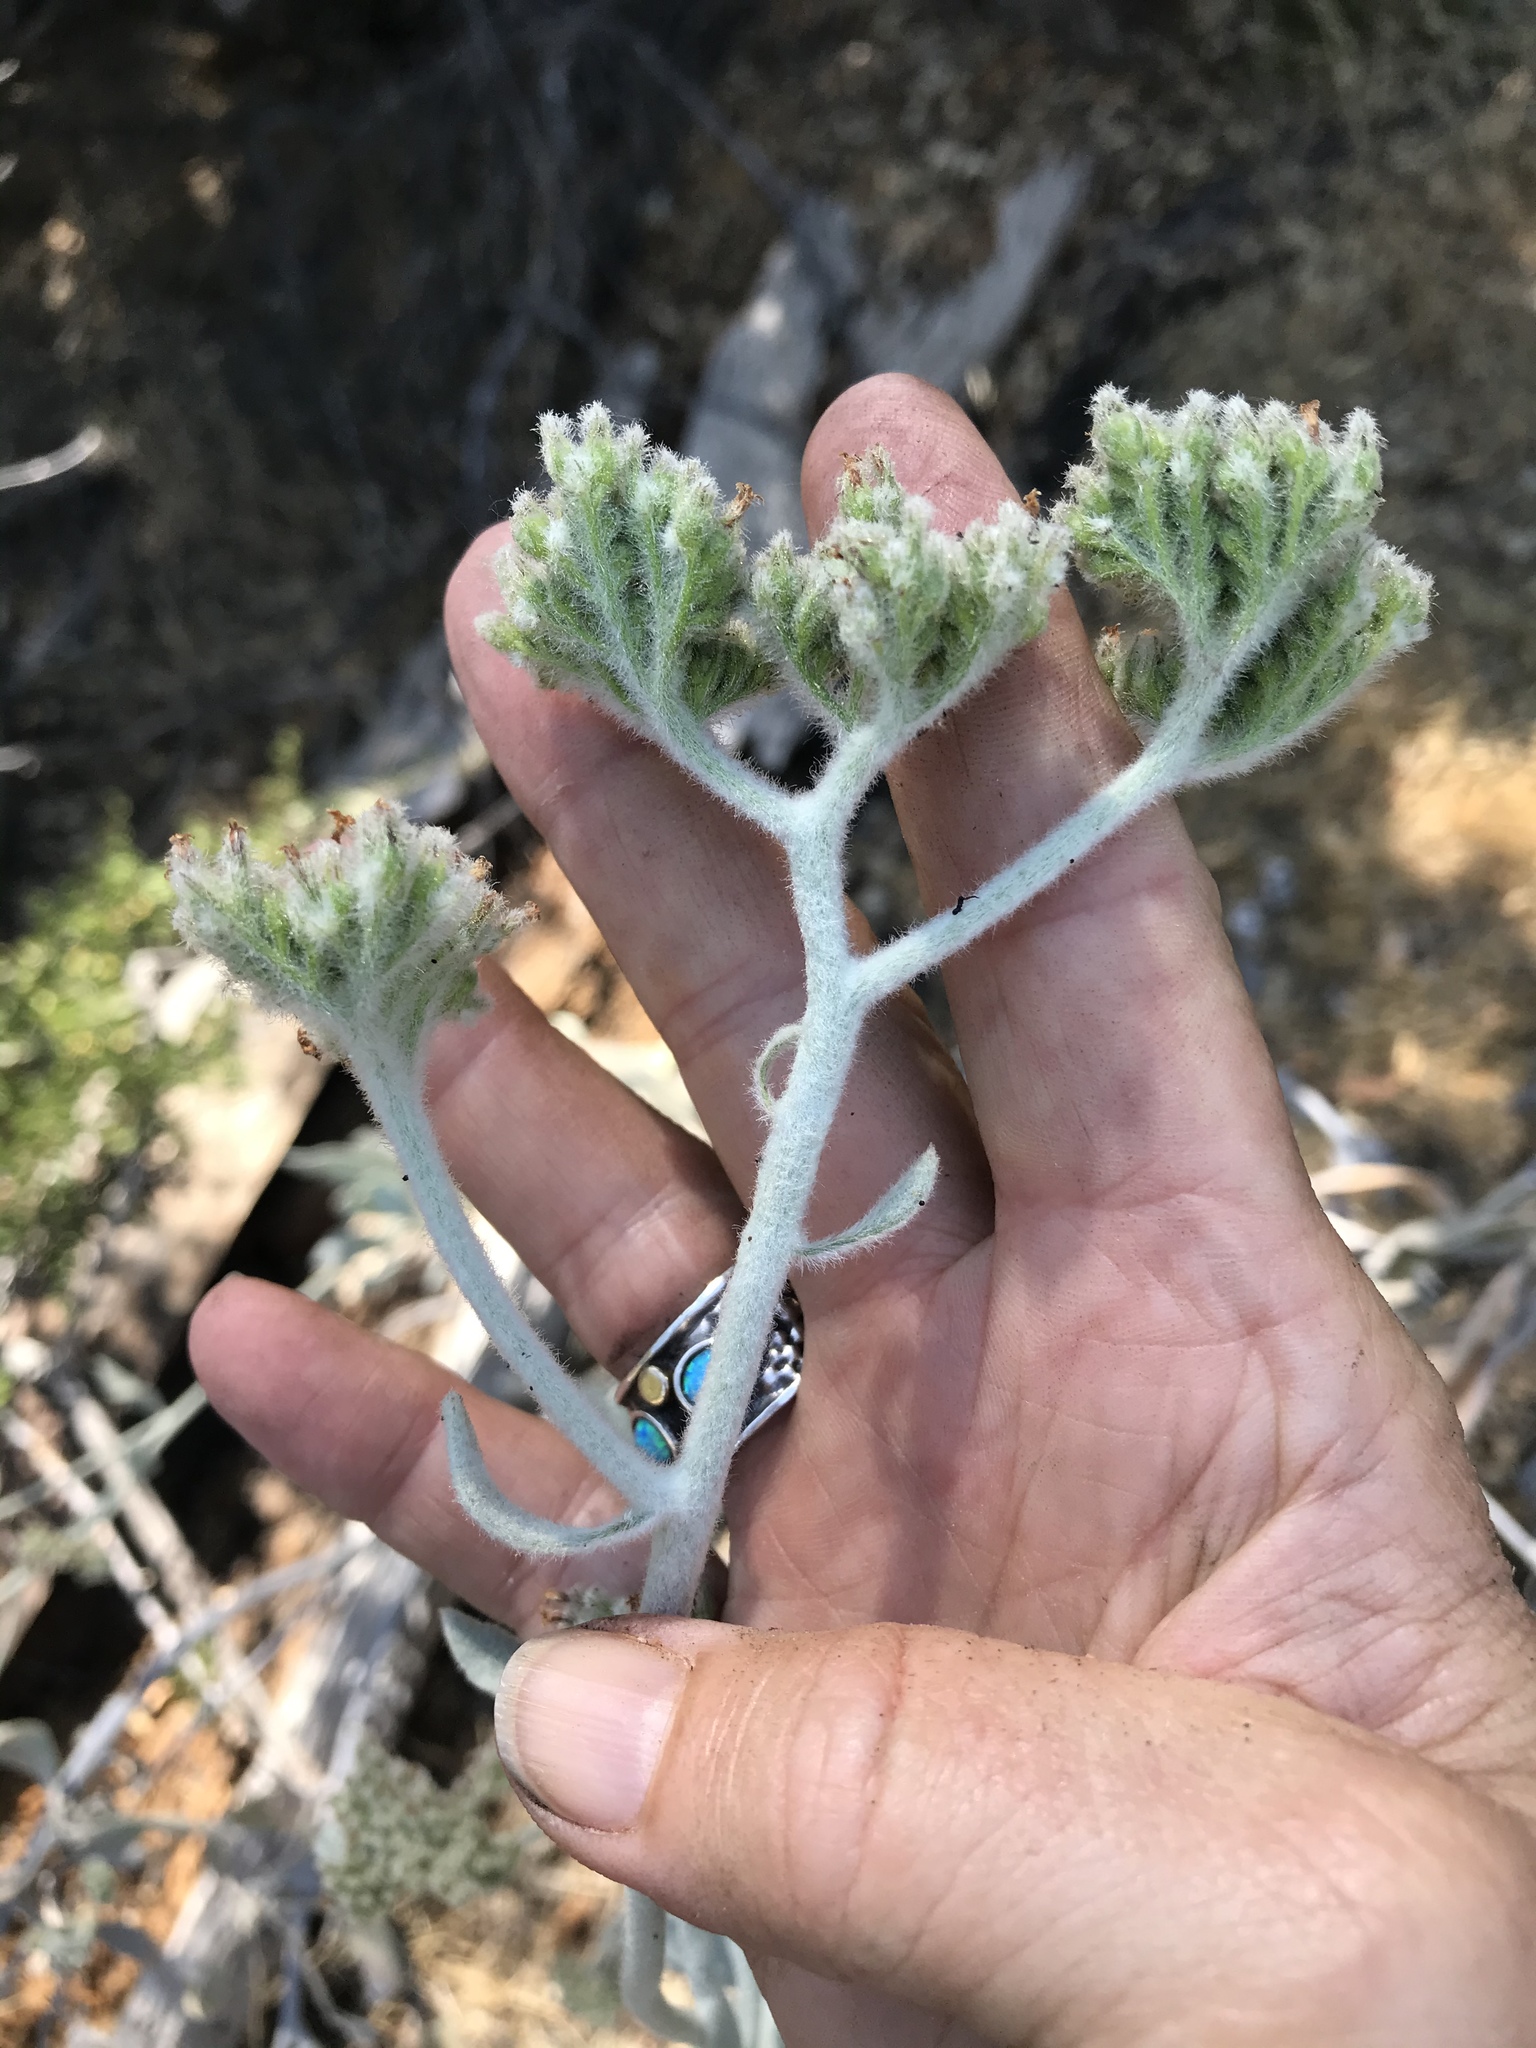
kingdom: Plantae
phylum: Tracheophyta
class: Magnoliopsida
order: Boraginales
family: Namaceae
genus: Eriodictyon
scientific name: Eriodictyon tomentosum
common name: Woolly yerba-santa
